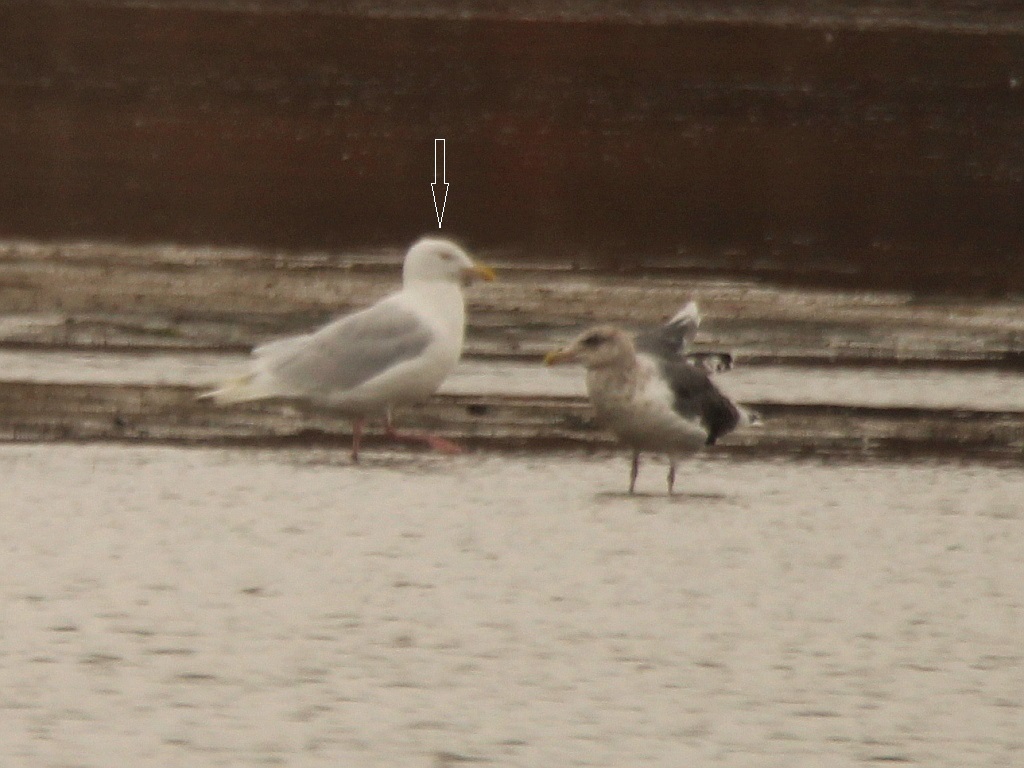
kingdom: Animalia
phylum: Chordata
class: Aves
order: Charadriiformes
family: Laridae
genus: Larus
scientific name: Larus hyperboreus
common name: Glaucous gull
